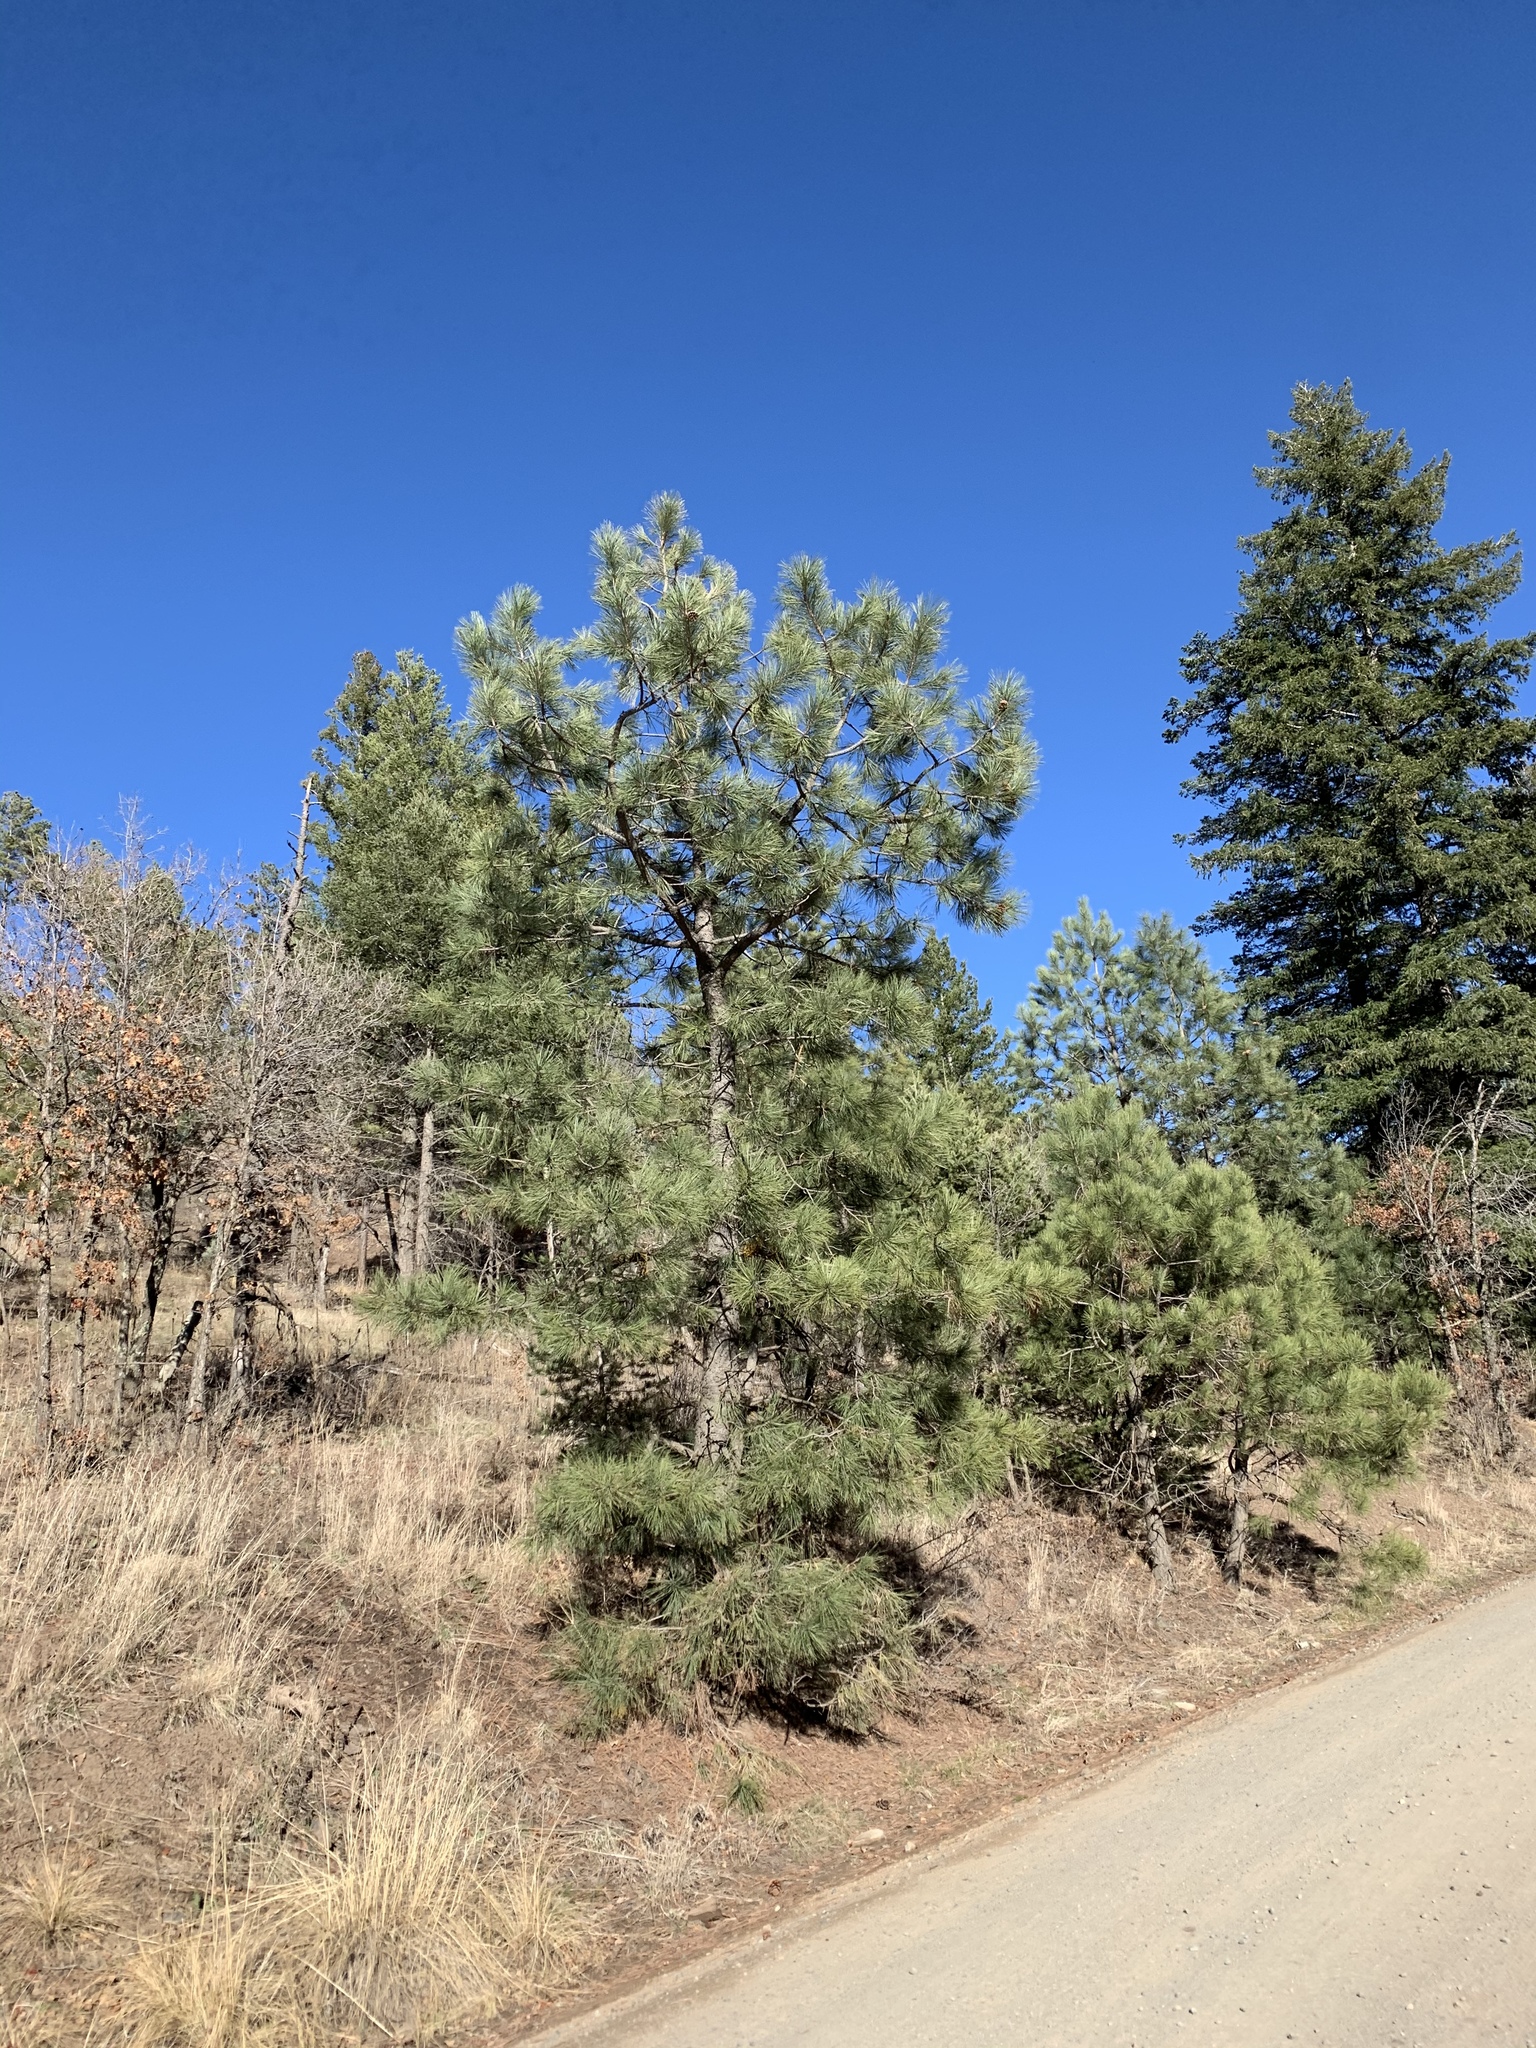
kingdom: Plantae
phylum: Tracheophyta
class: Pinopsida
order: Pinales
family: Pinaceae
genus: Pinus
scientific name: Pinus ponderosa
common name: Western yellow-pine
